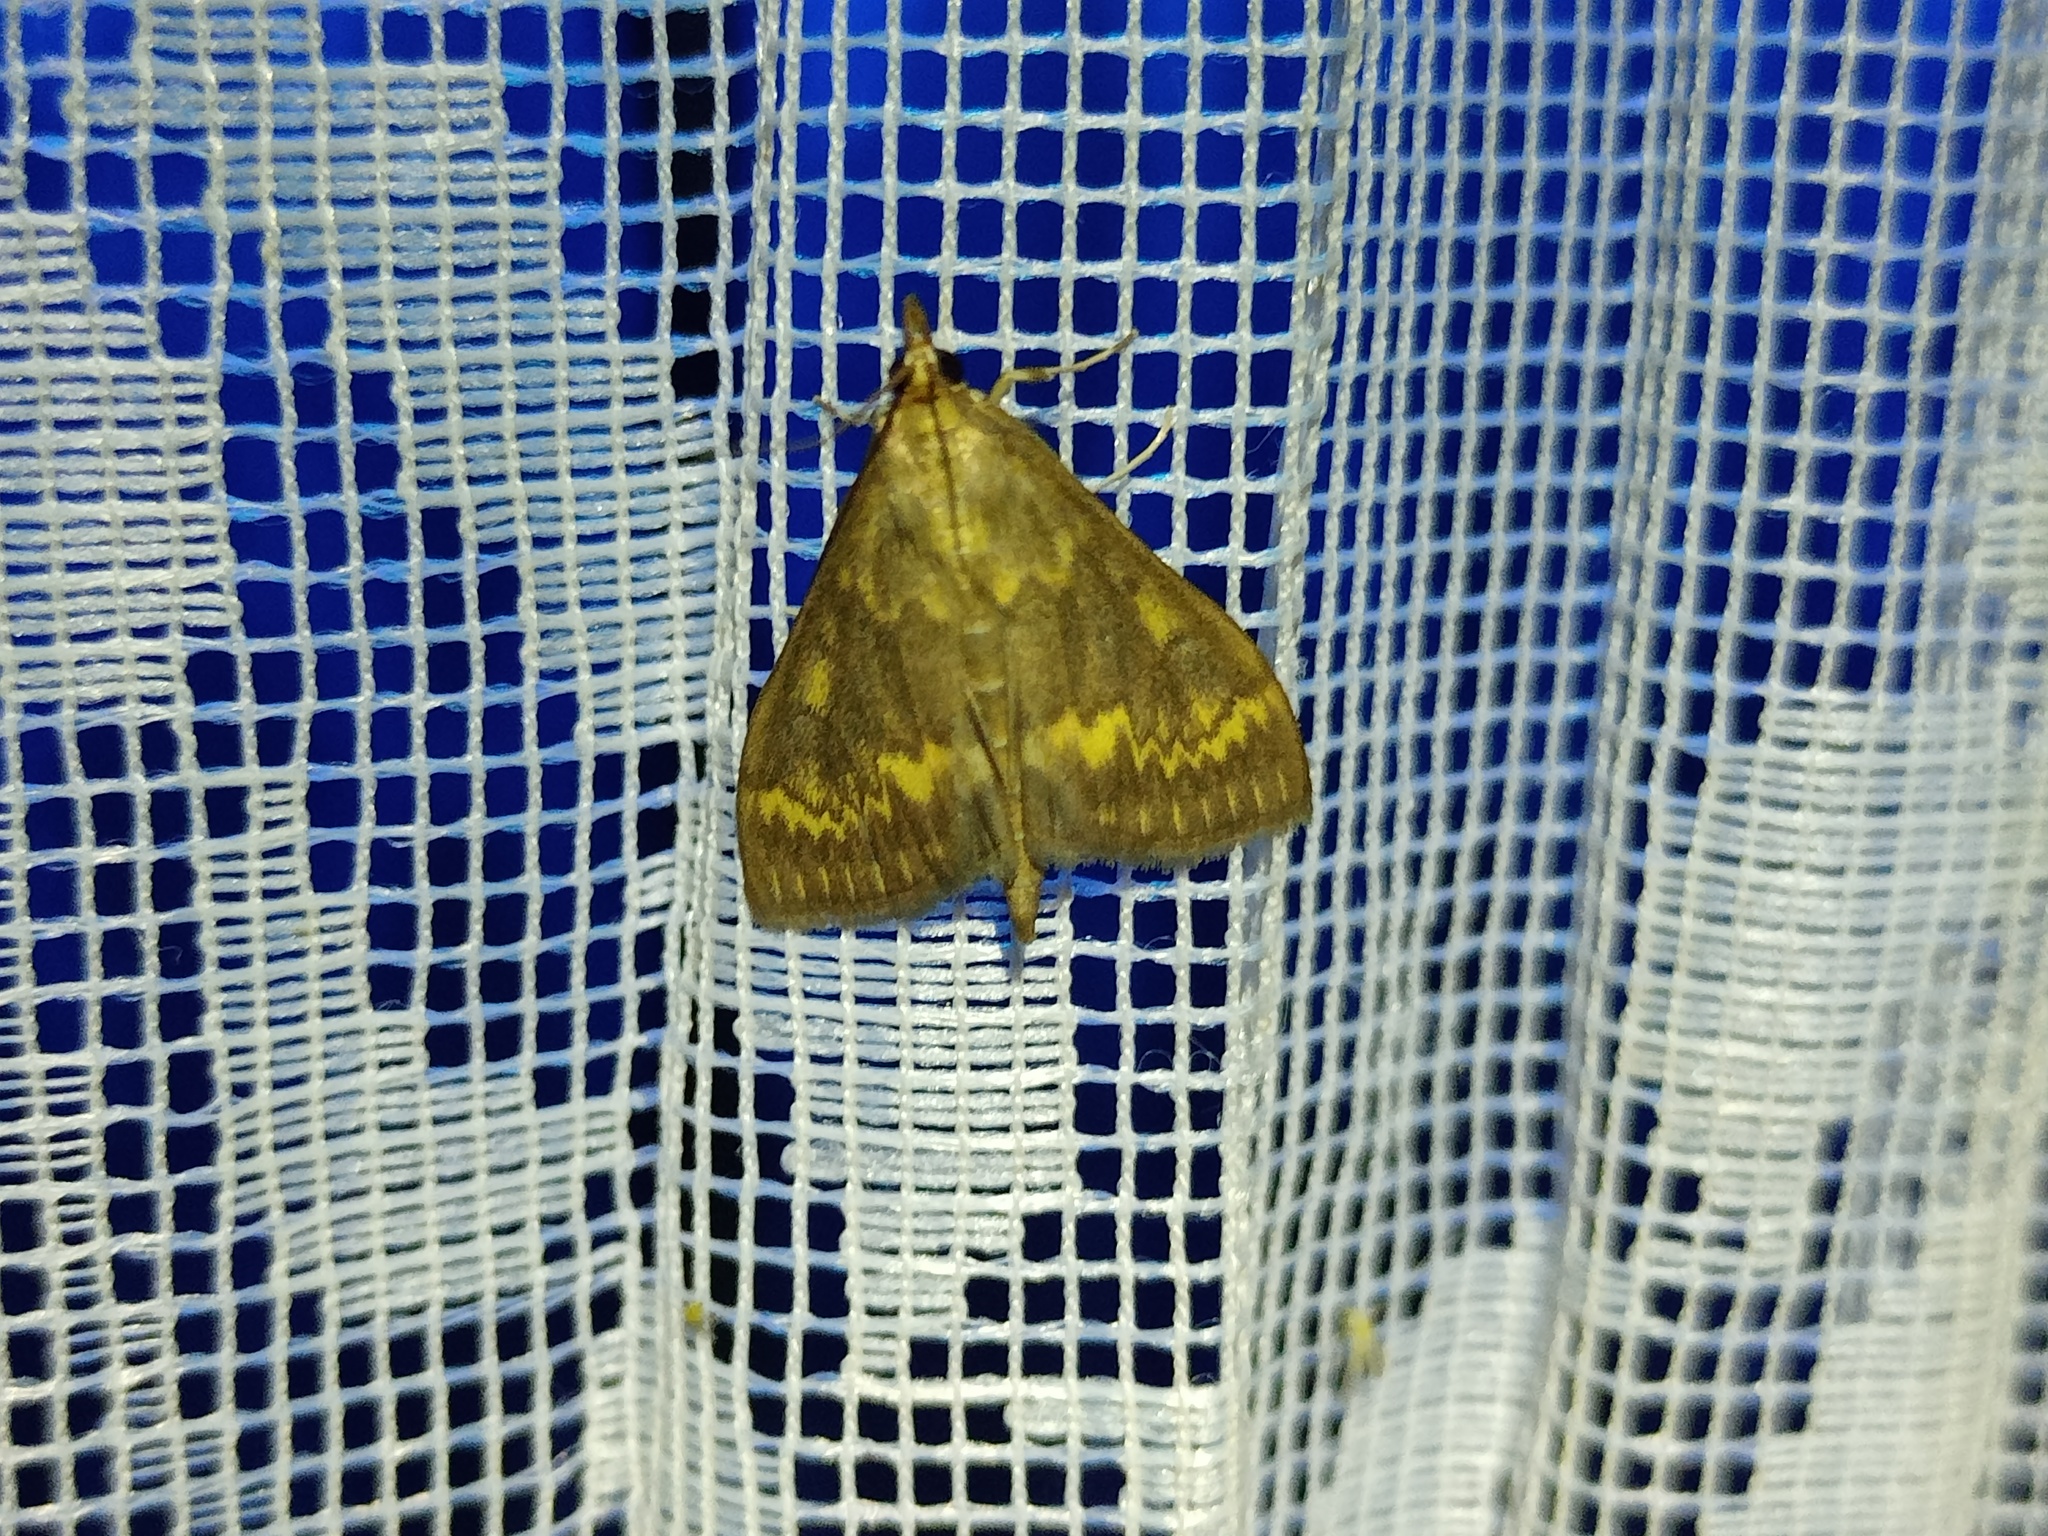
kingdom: Animalia
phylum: Arthropoda
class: Insecta
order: Lepidoptera
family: Crambidae
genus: Ostrinia
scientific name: Ostrinia nubilalis
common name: European corn borer
